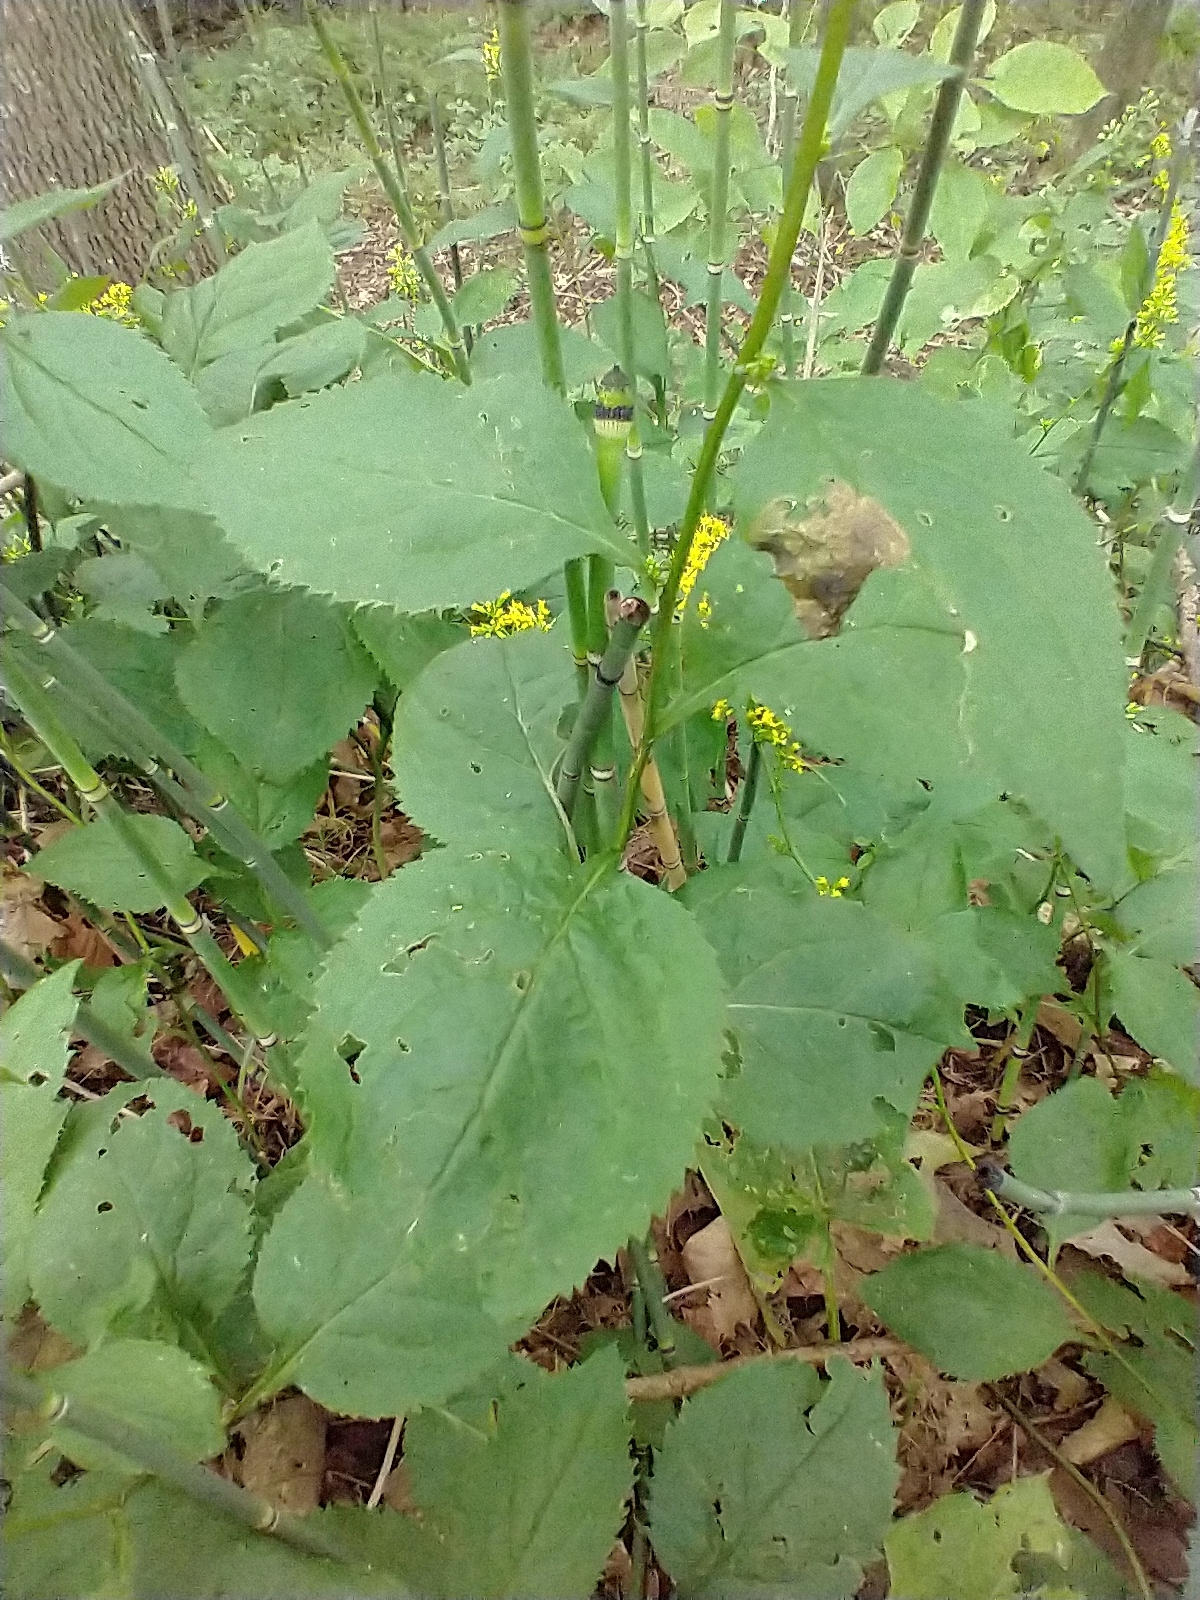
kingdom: Plantae
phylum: Tracheophyta
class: Magnoliopsida
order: Asterales
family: Asteraceae
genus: Solidago
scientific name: Solidago flexicaulis
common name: Zig-zag goldenrod
